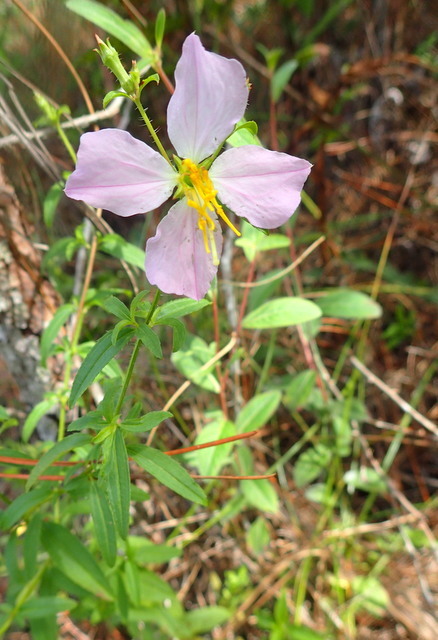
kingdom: Plantae
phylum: Tracheophyta
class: Magnoliopsida
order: Myrtales
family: Melastomataceae
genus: Rhexia
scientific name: Rhexia mariana
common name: Dull meadow-pitcher
